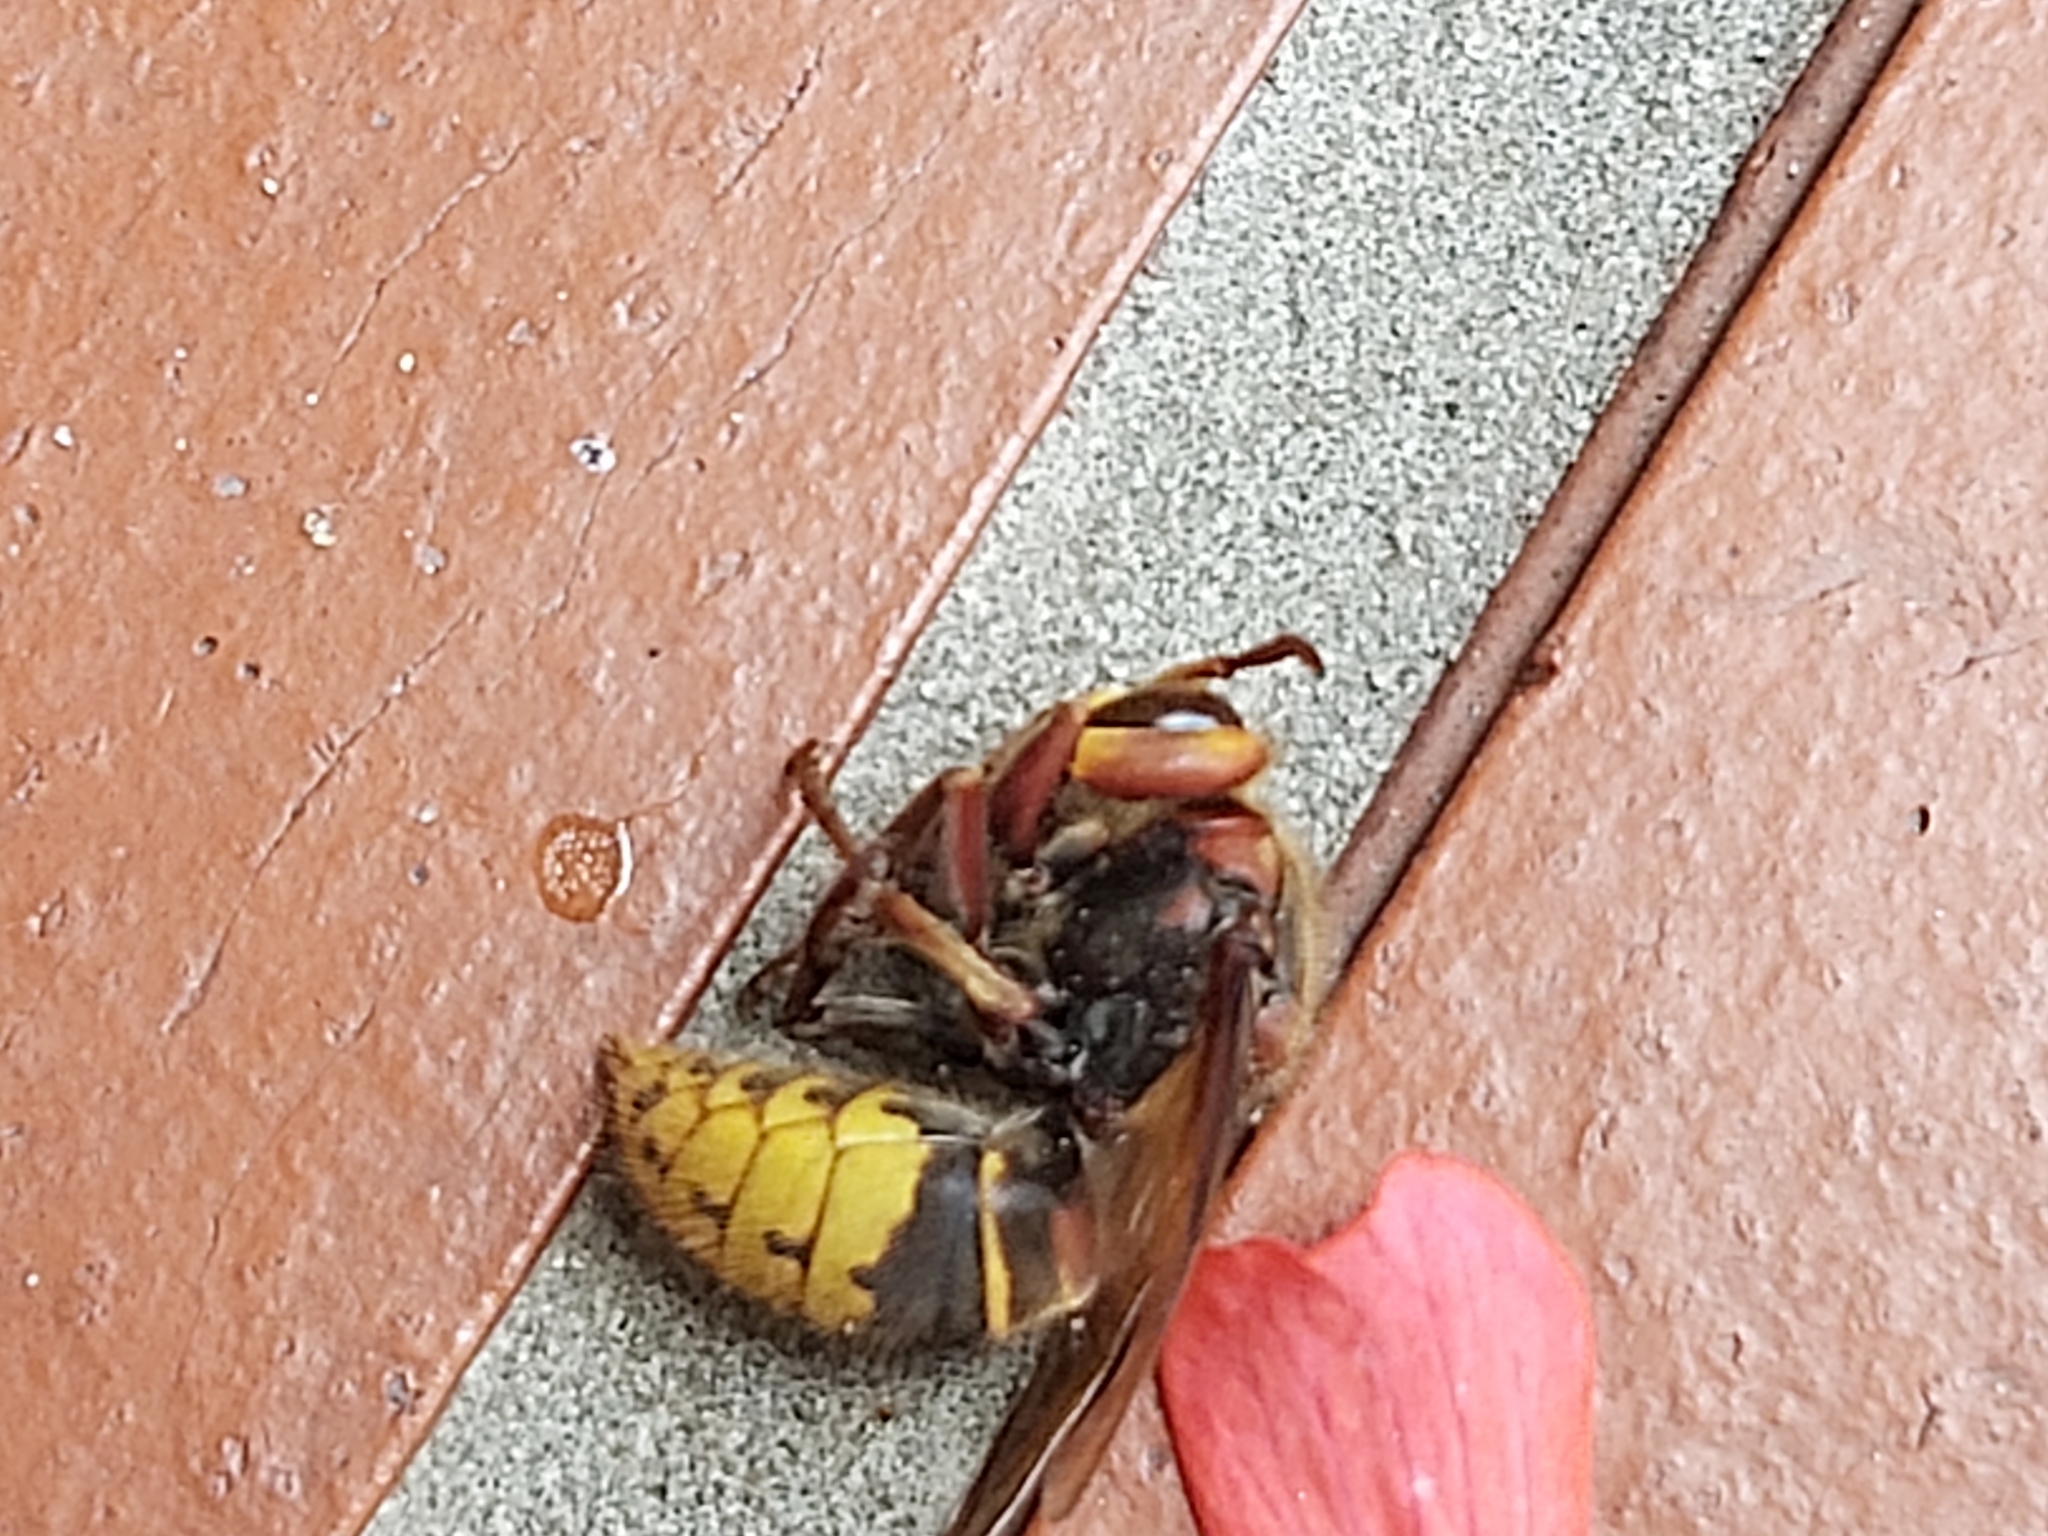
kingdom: Animalia
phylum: Arthropoda
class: Insecta
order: Hymenoptera
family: Vespidae
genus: Vespa
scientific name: Vespa crabro
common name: Hornet
